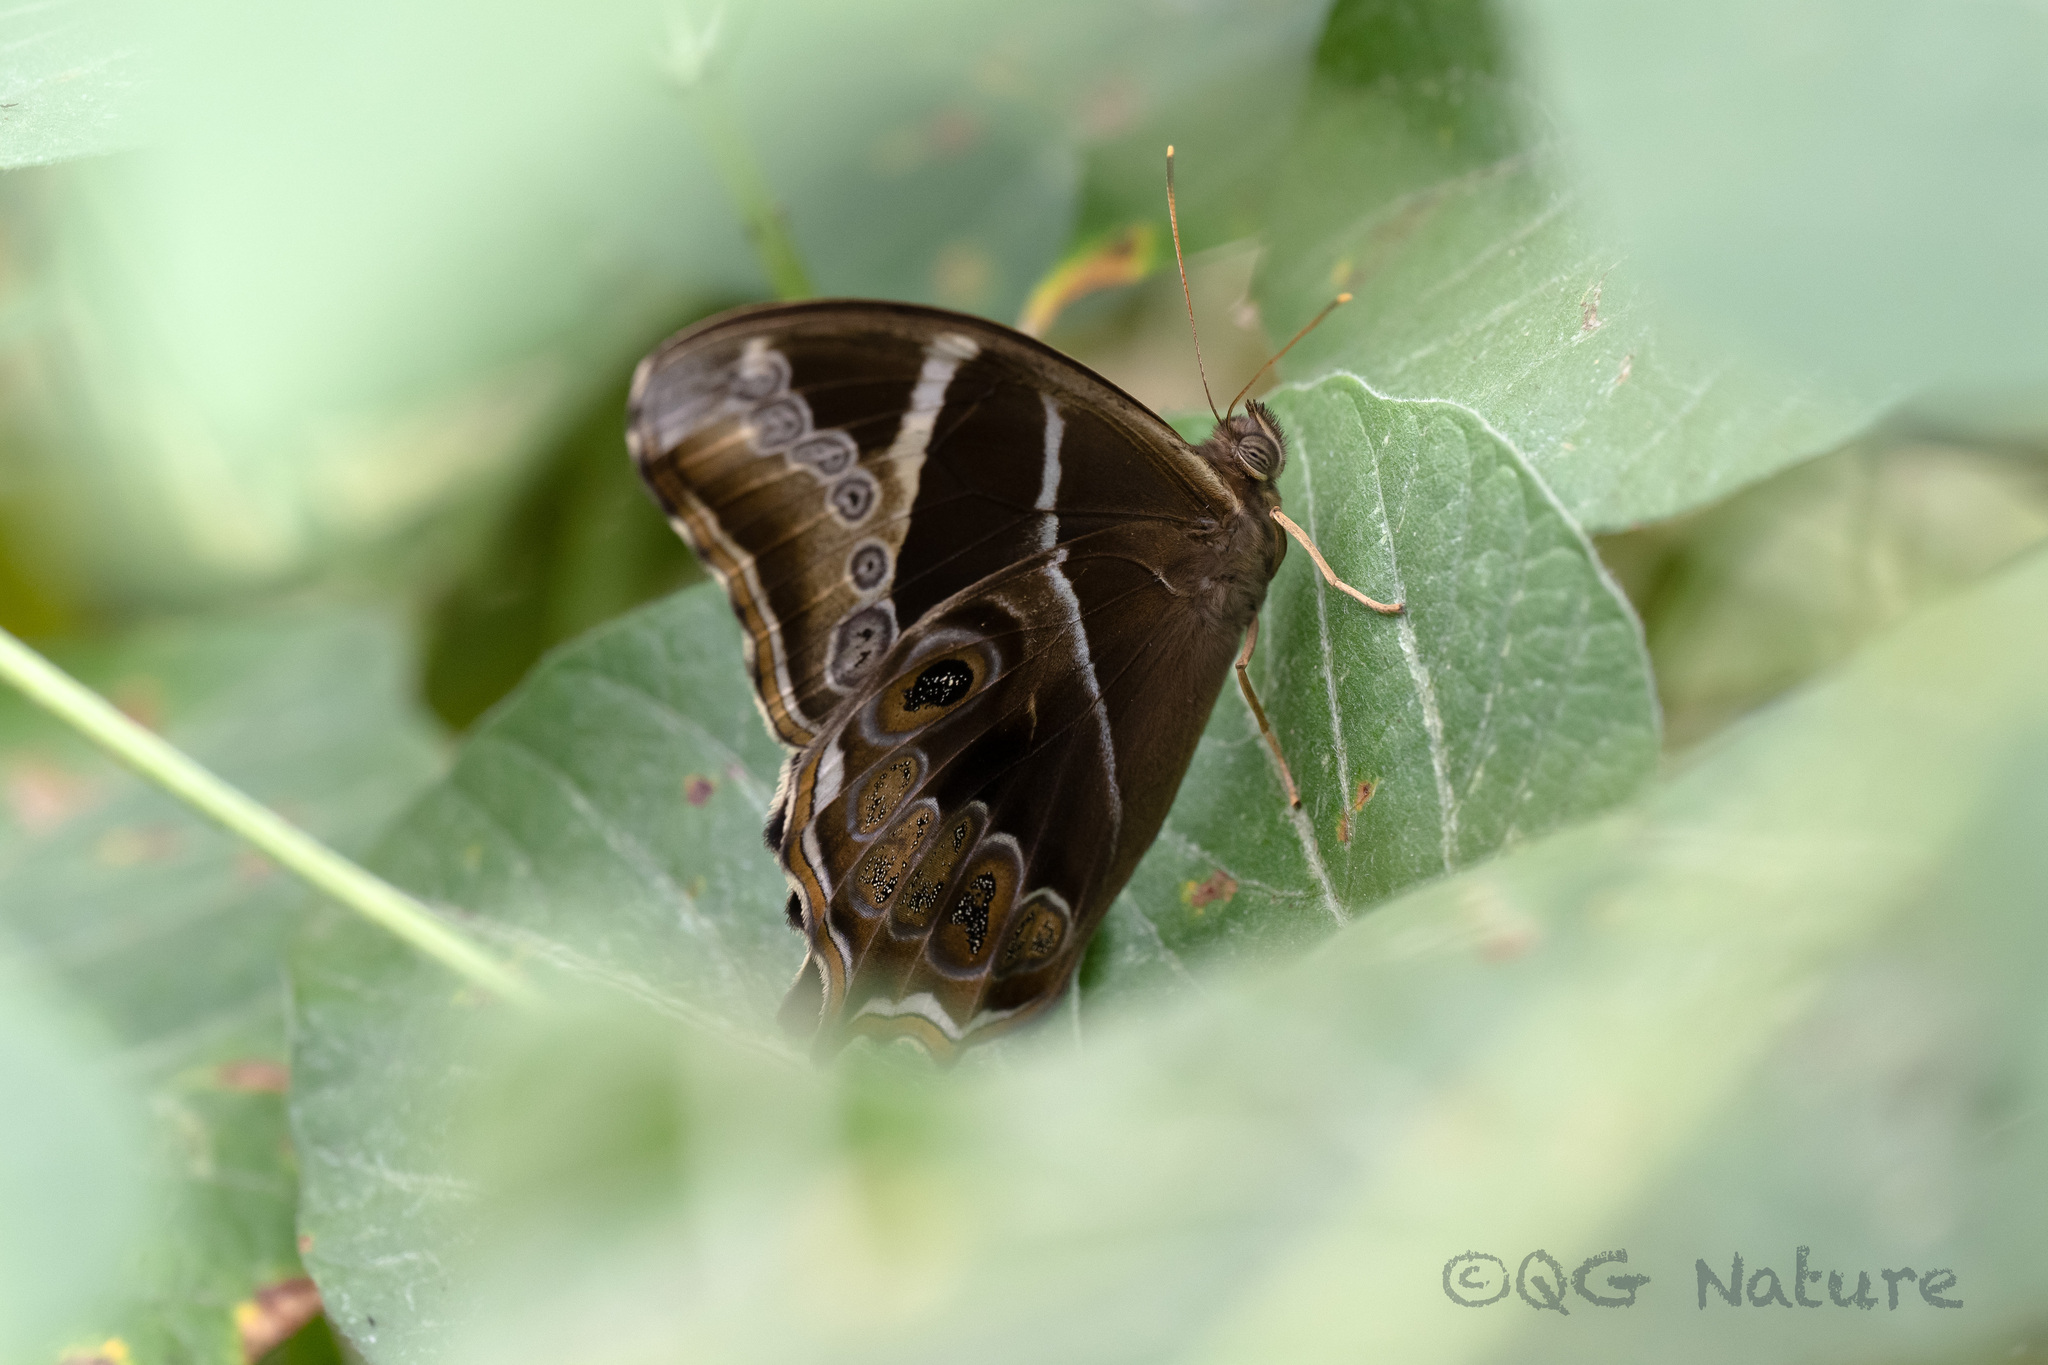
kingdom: Animalia
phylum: Arthropoda
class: Insecta
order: Lepidoptera
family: Nymphalidae
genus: Lethe
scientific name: Lethe europa
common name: Bamboo treebrown
